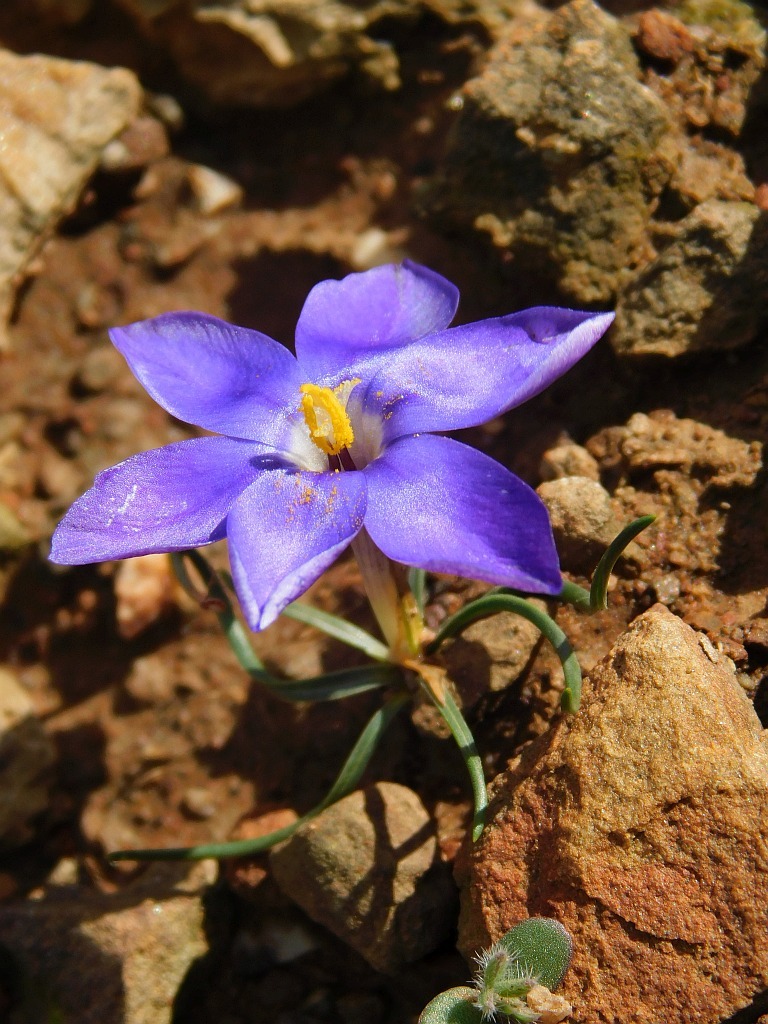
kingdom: Plantae
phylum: Tracheophyta
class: Liliopsida
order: Asparagales
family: Iridaceae
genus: Syringodea
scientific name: Syringodea longituba
